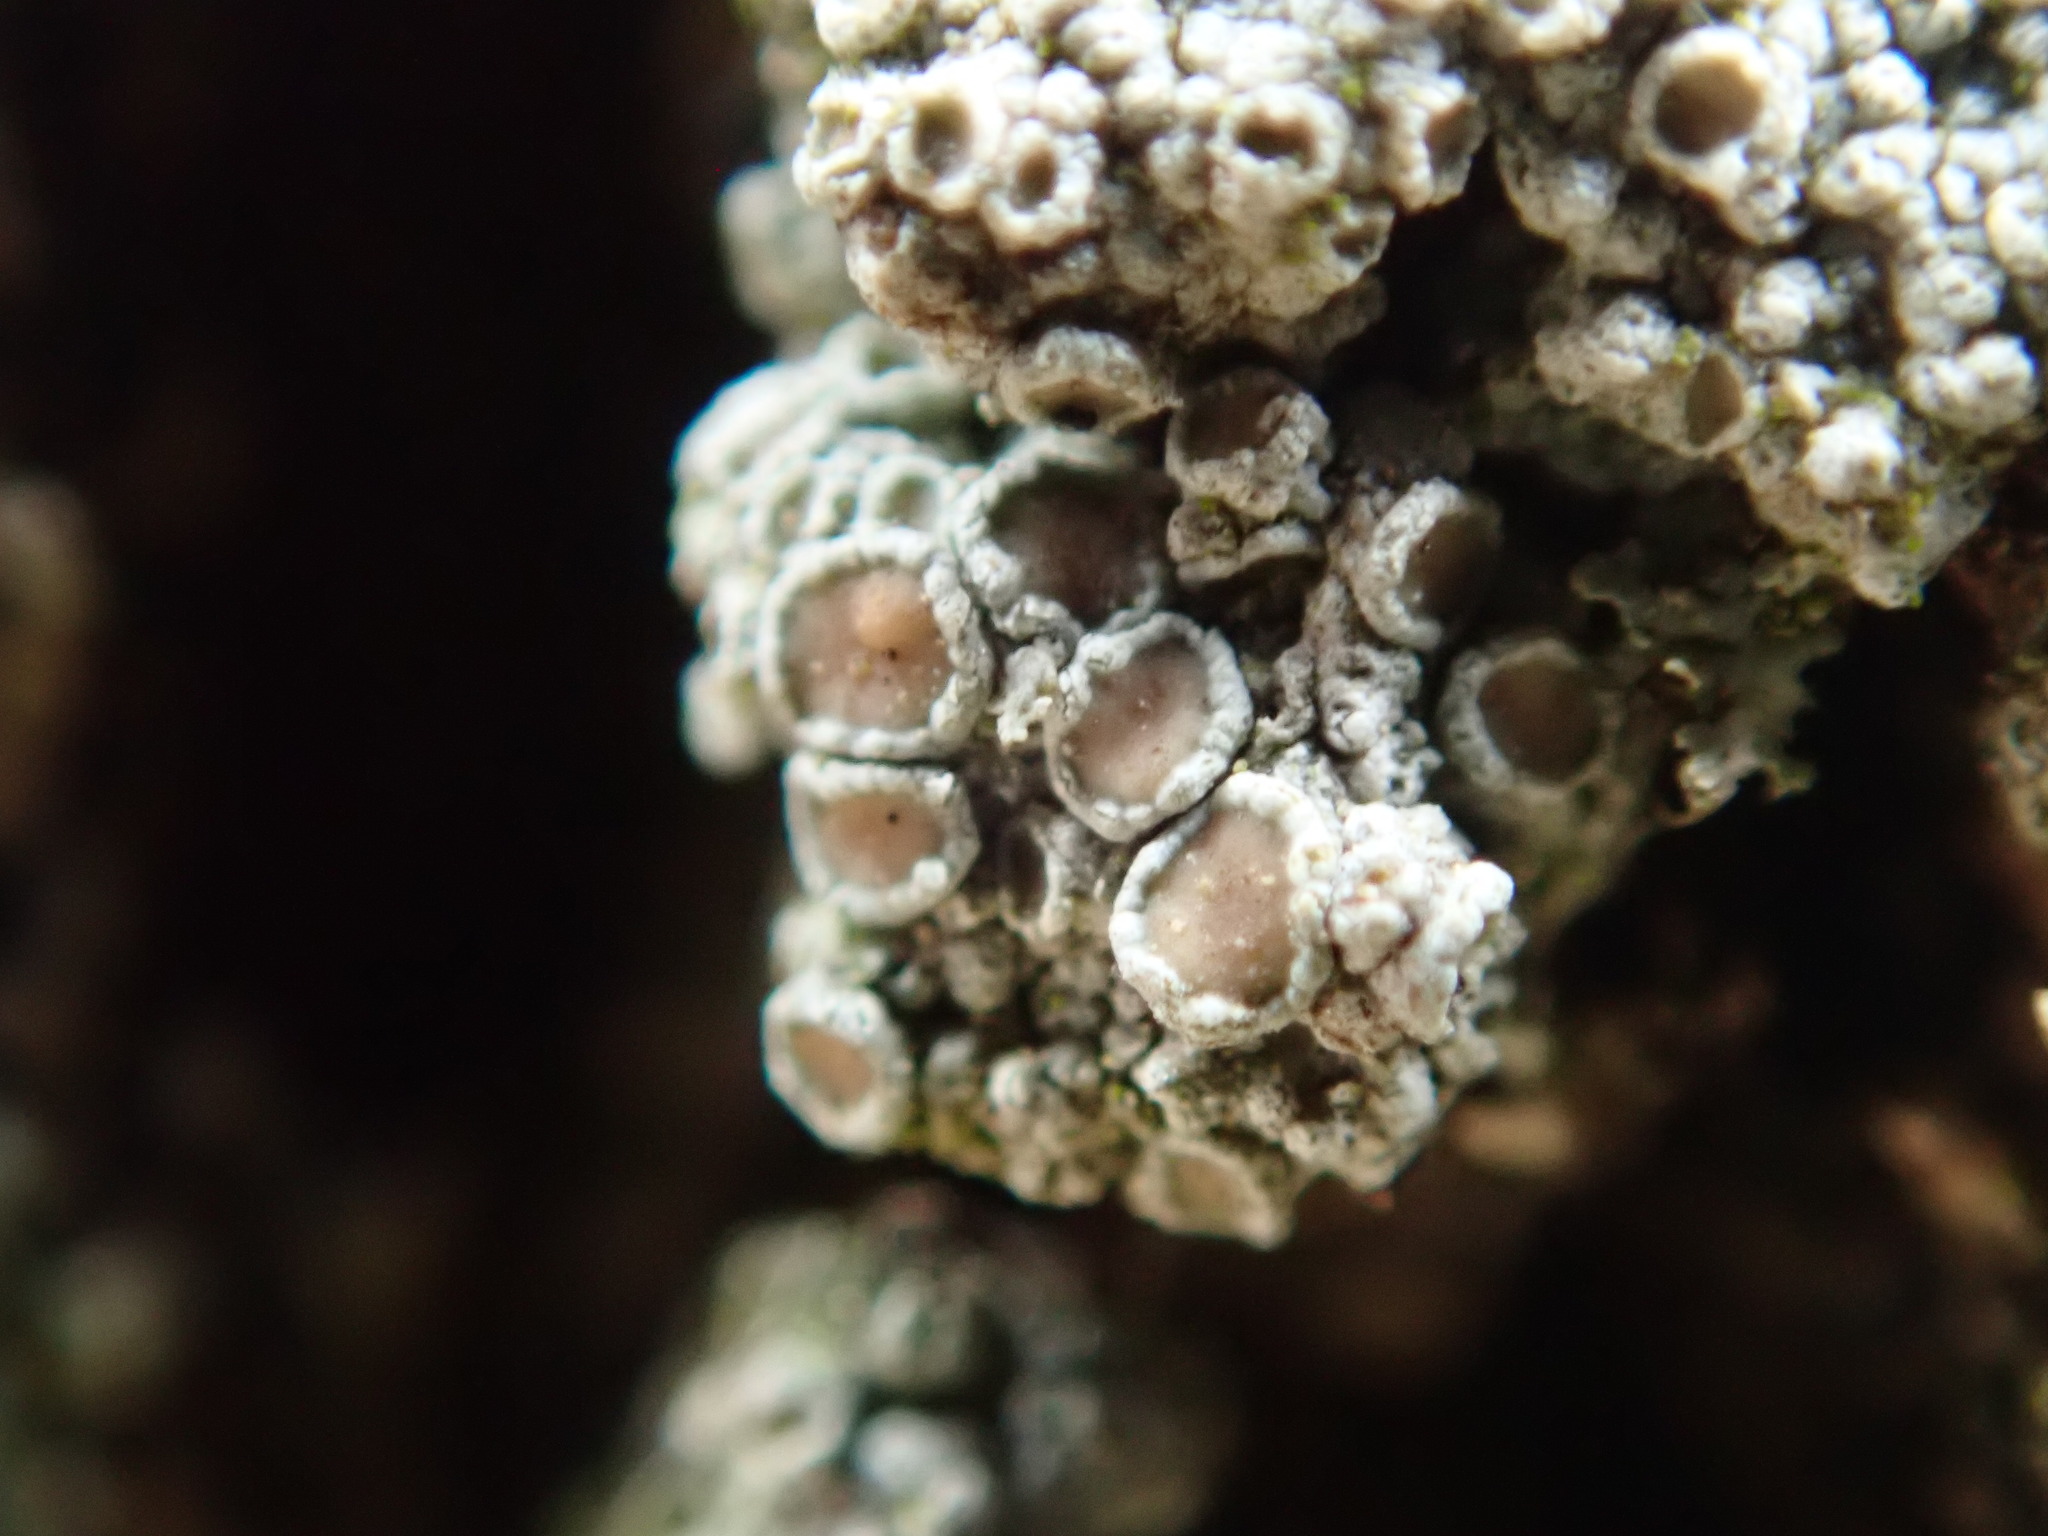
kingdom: Fungi
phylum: Ascomycota
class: Lecanoromycetes
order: Lecanorales
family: Lecanoraceae
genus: Lecanora
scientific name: Lecanora hybocarpa
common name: Bumpy rim-lichen
